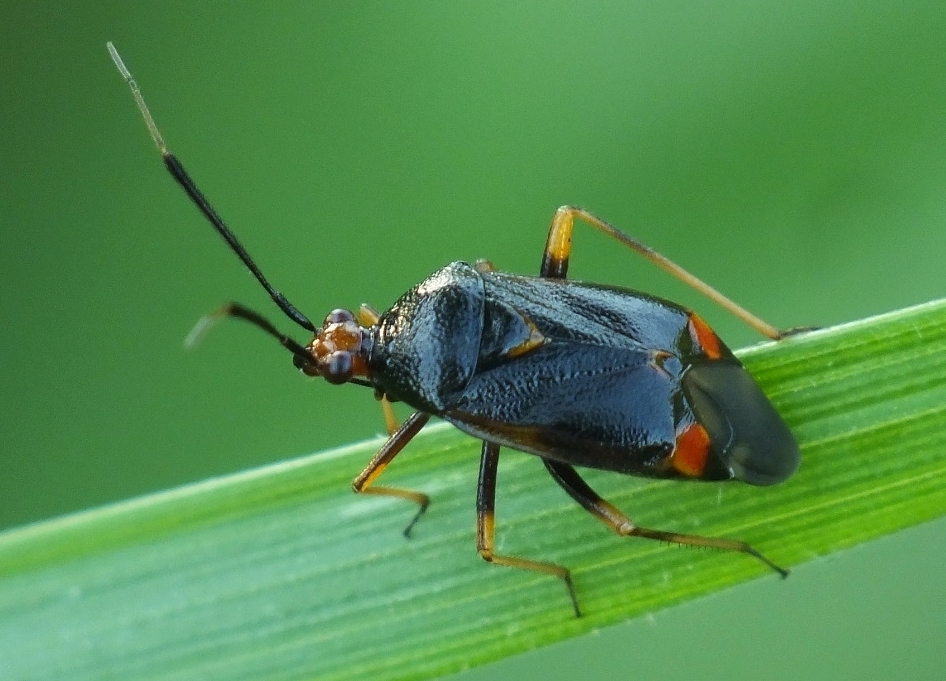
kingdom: Animalia
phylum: Arthropoda
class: Insecta
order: Hemiptera
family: Miridae
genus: Deraeocoris
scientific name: Deraeocoris ruber
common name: Plant bug
